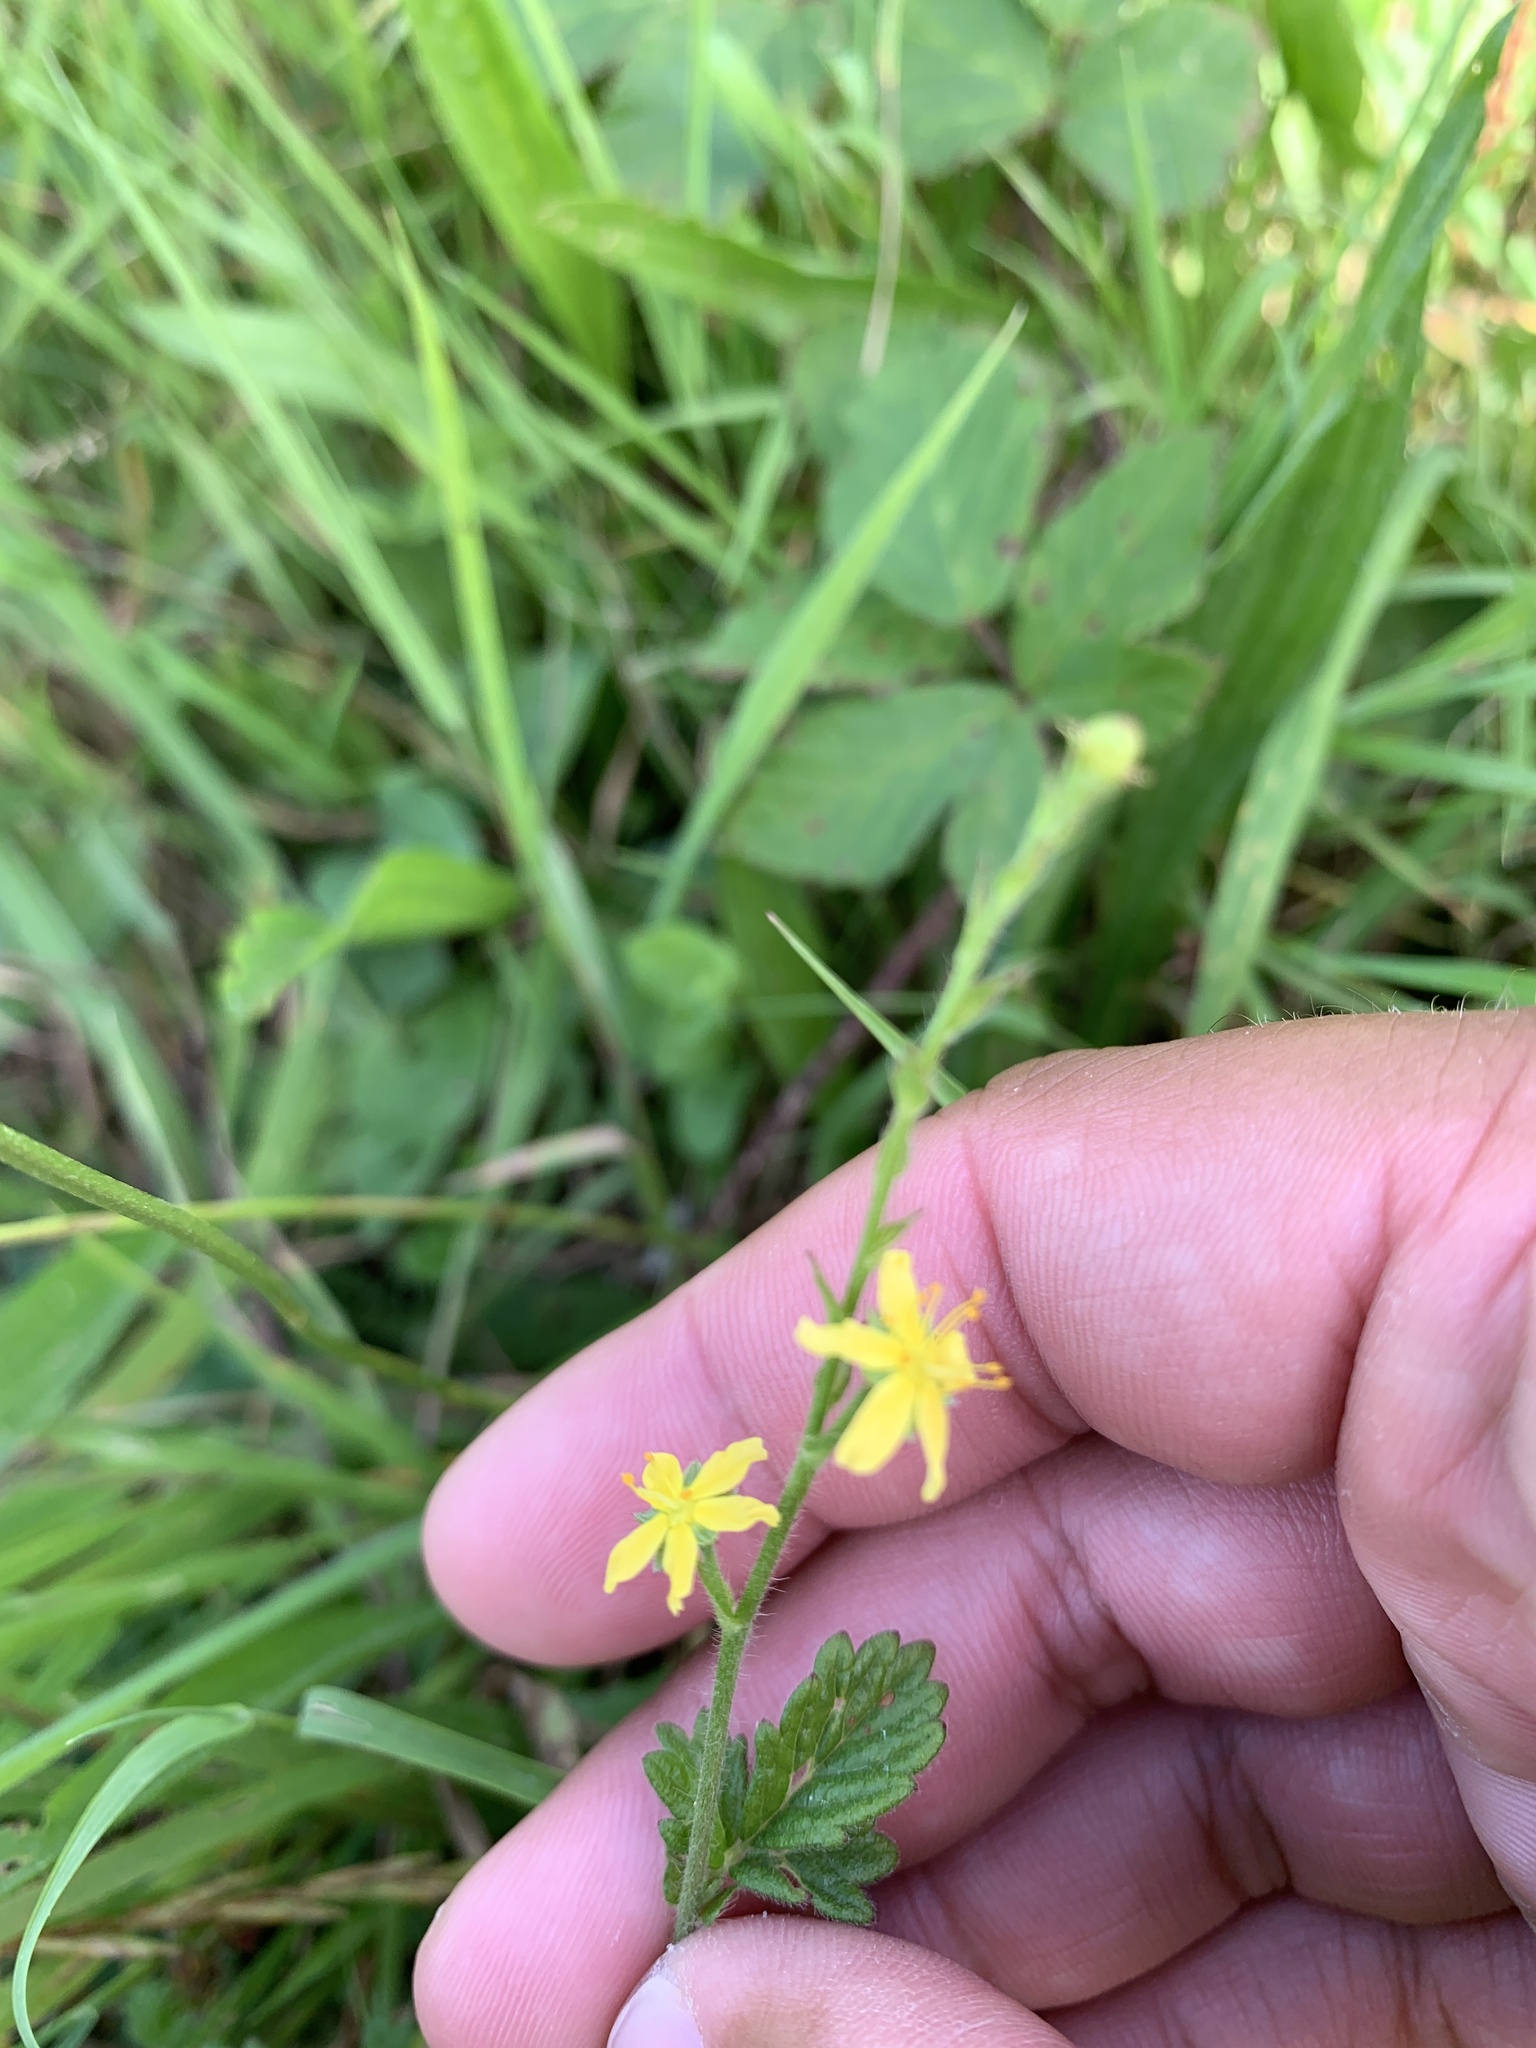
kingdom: Plantae
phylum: Tracheophyta
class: Magnoliopsida
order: Rosales
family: Rosaceae
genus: Agrimonia
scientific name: Agrimonia eupatoria
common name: Agrimony
